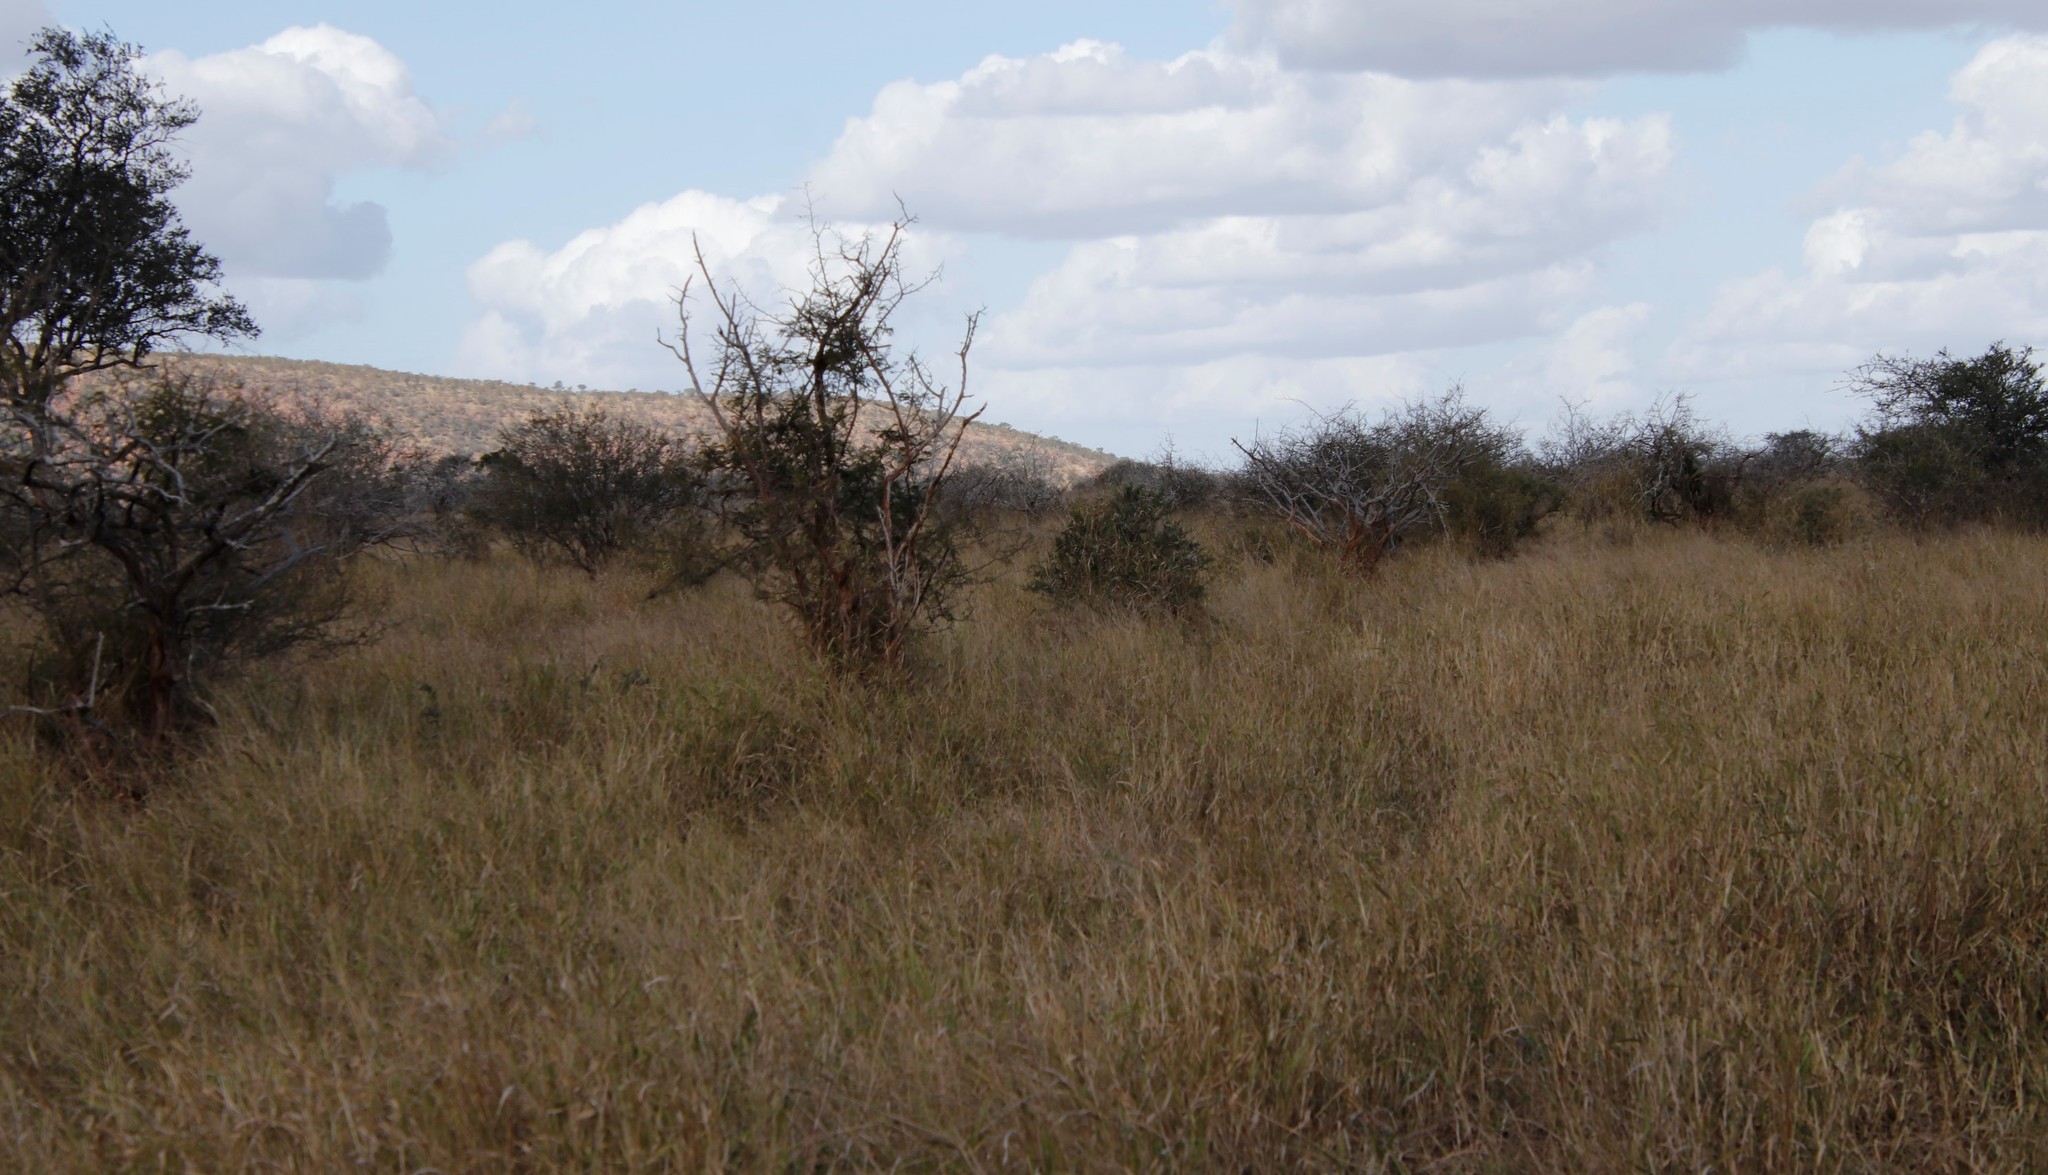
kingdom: Plantae
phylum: Tracheophyta
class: Magnoliopsida
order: Fabales
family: Fabaceae
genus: Dichrostachys
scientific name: Dichrostachys cinerea
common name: Sicklebush
